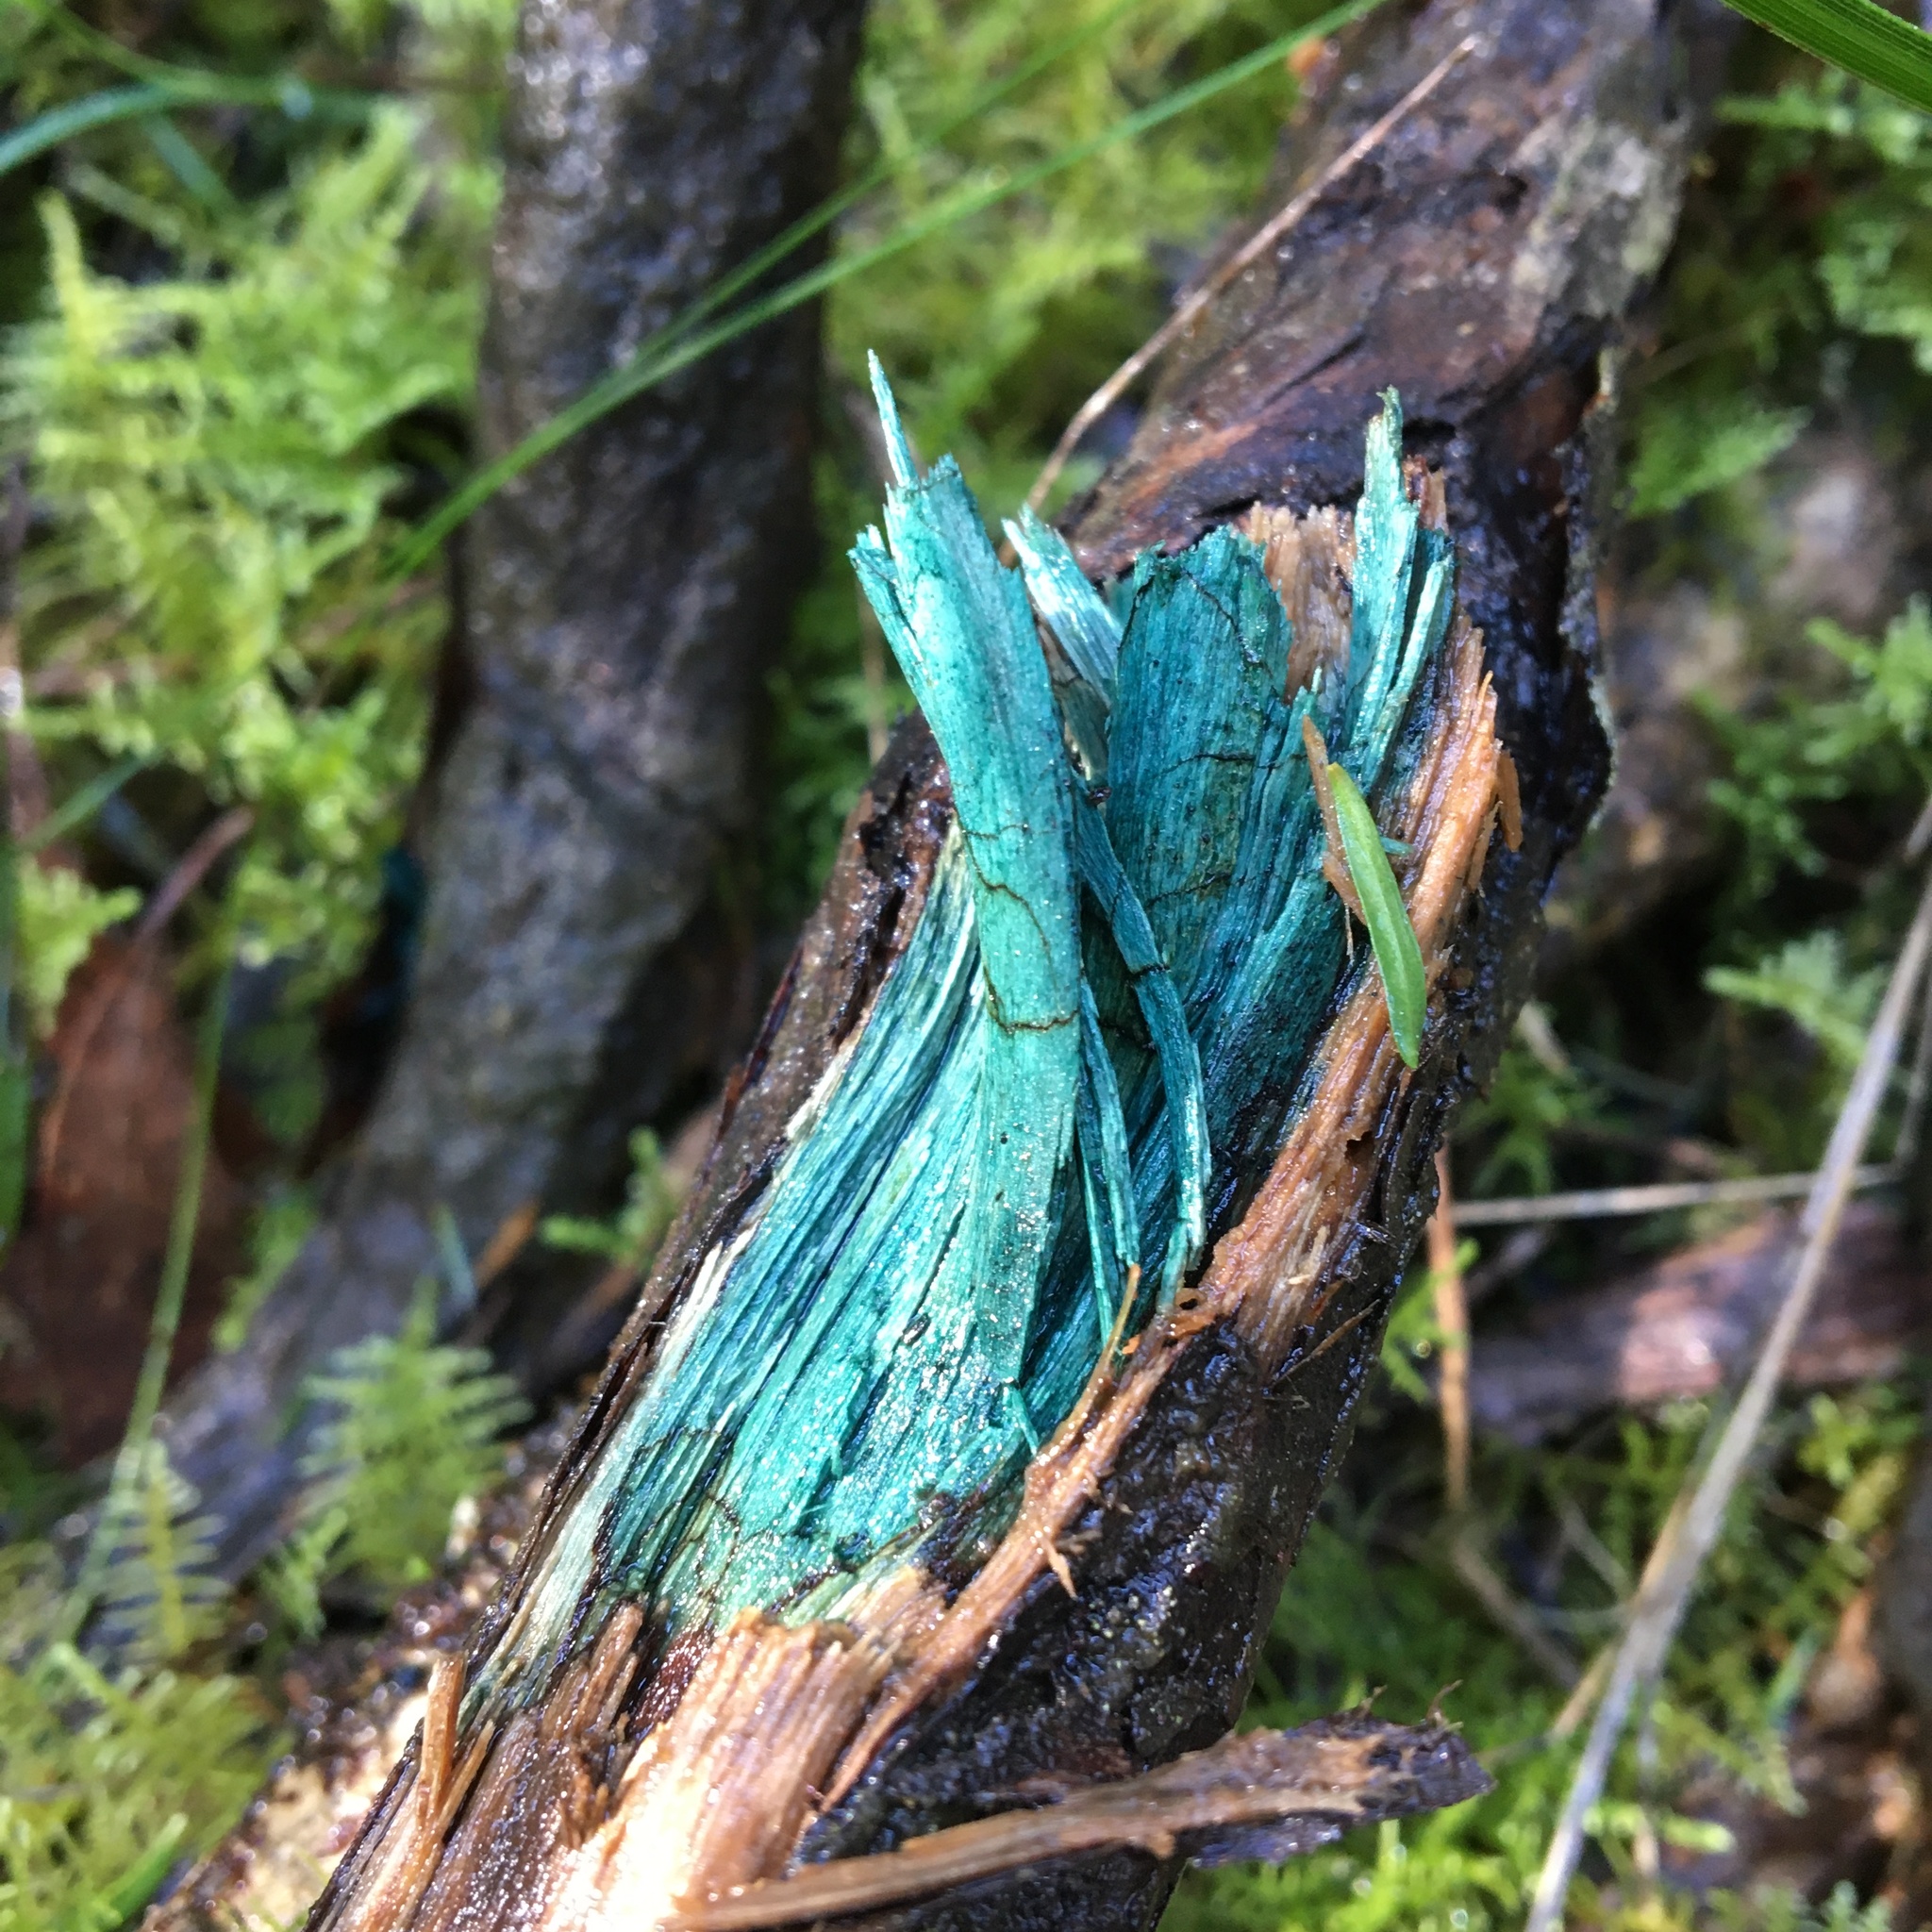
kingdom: Fungi
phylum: Ascomycota
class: Leotiomycetes
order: Helotiales
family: Chlorociboriaceae
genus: Chlorociboria
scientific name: Chlorociboria
